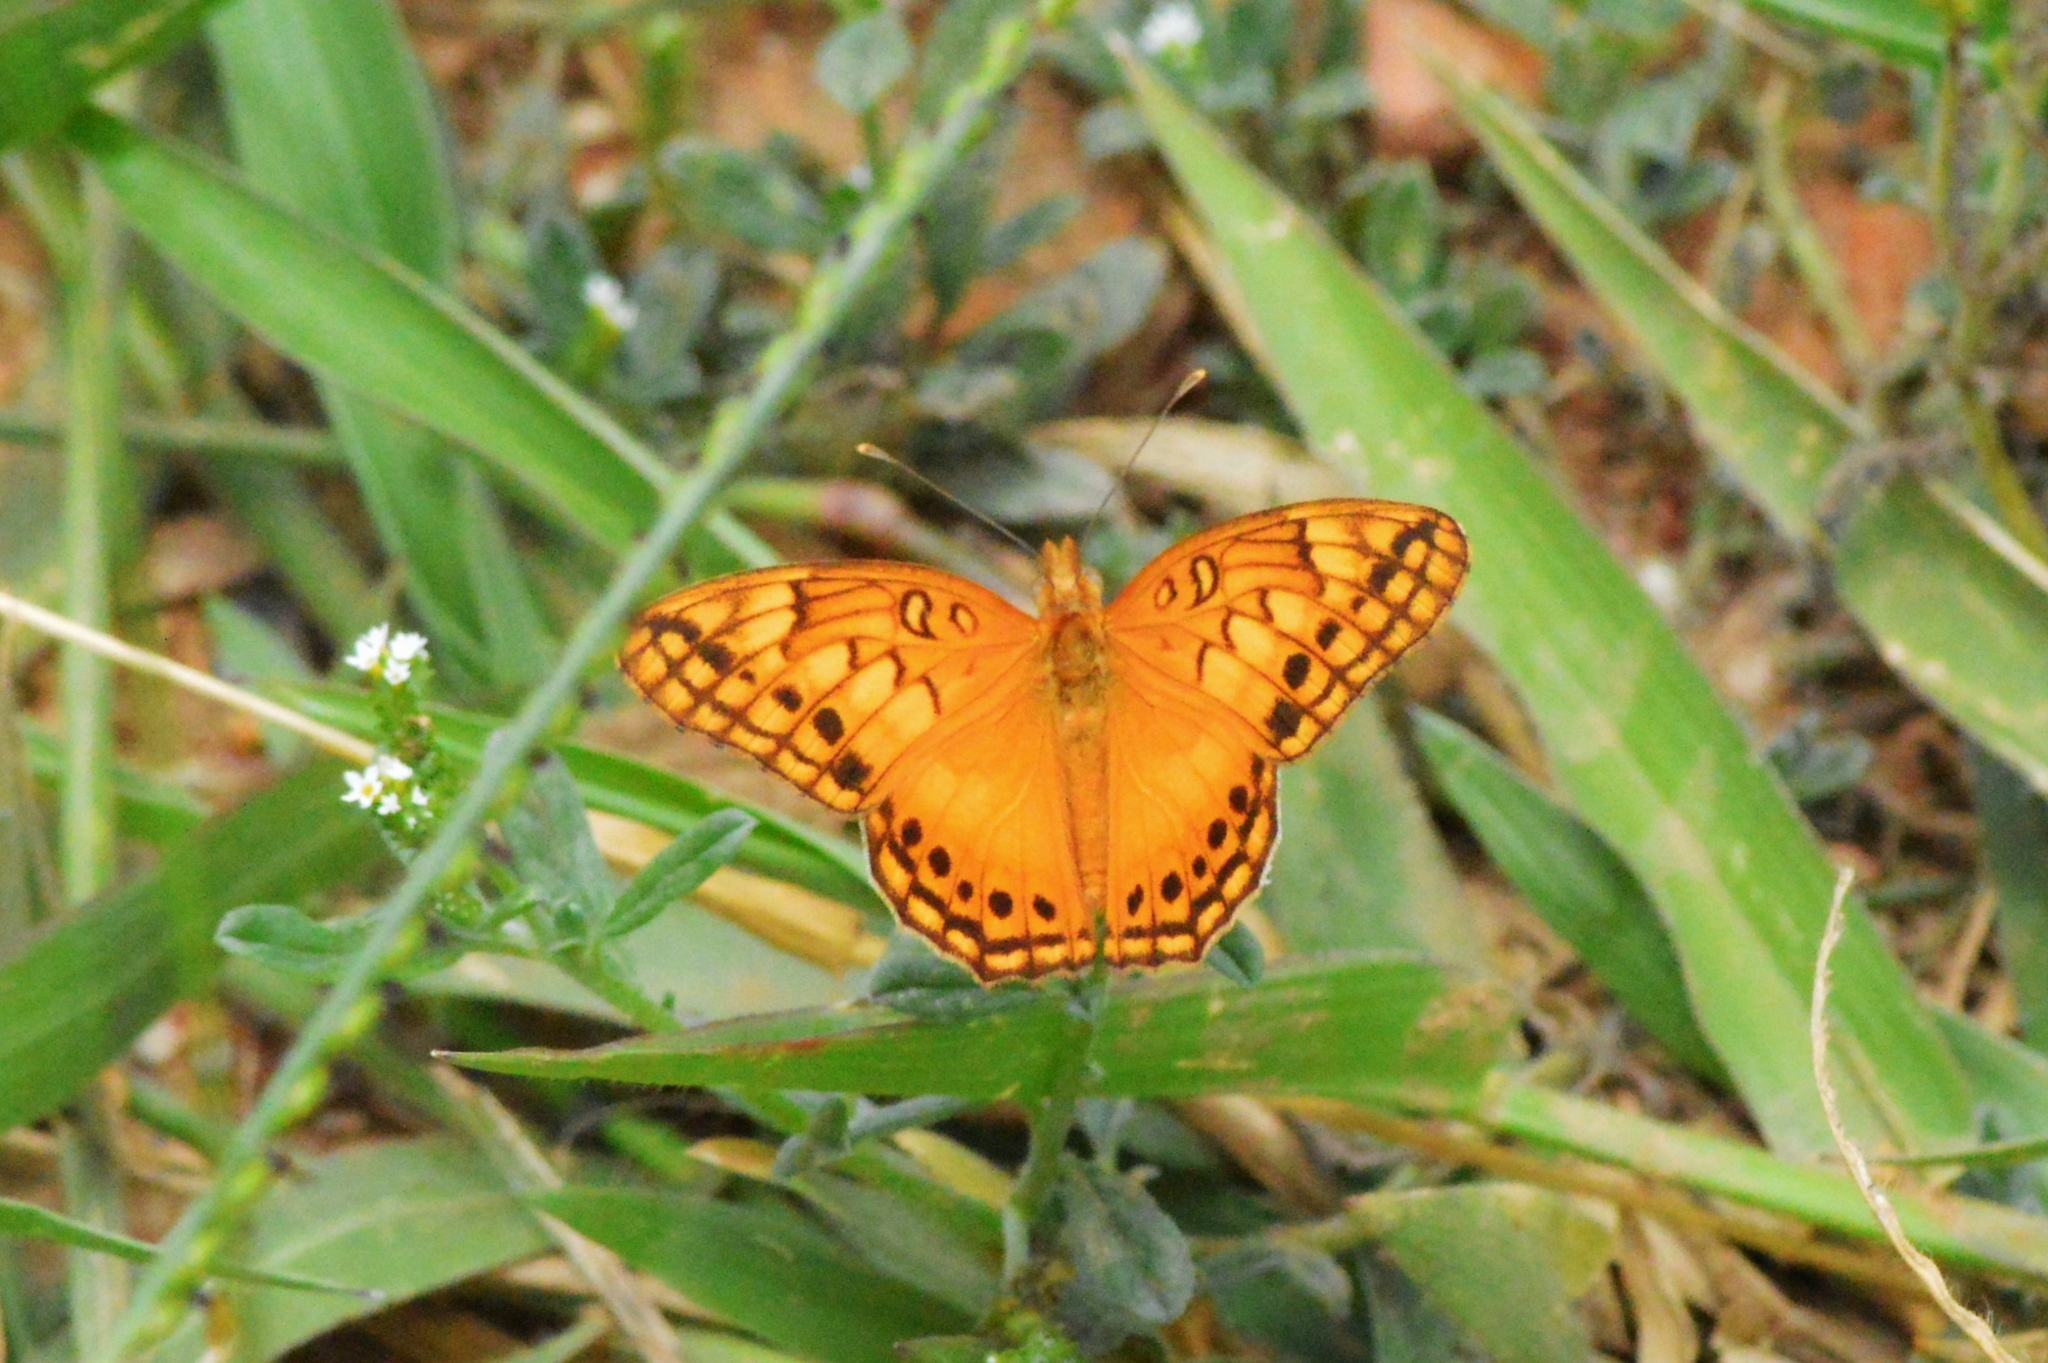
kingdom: Animalia
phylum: Arthropoda
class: Insecta
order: Lepidoptera
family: Nymphalidae
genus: Euptoieta
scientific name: Euptoieta hegesia
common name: Mexican fritillary
